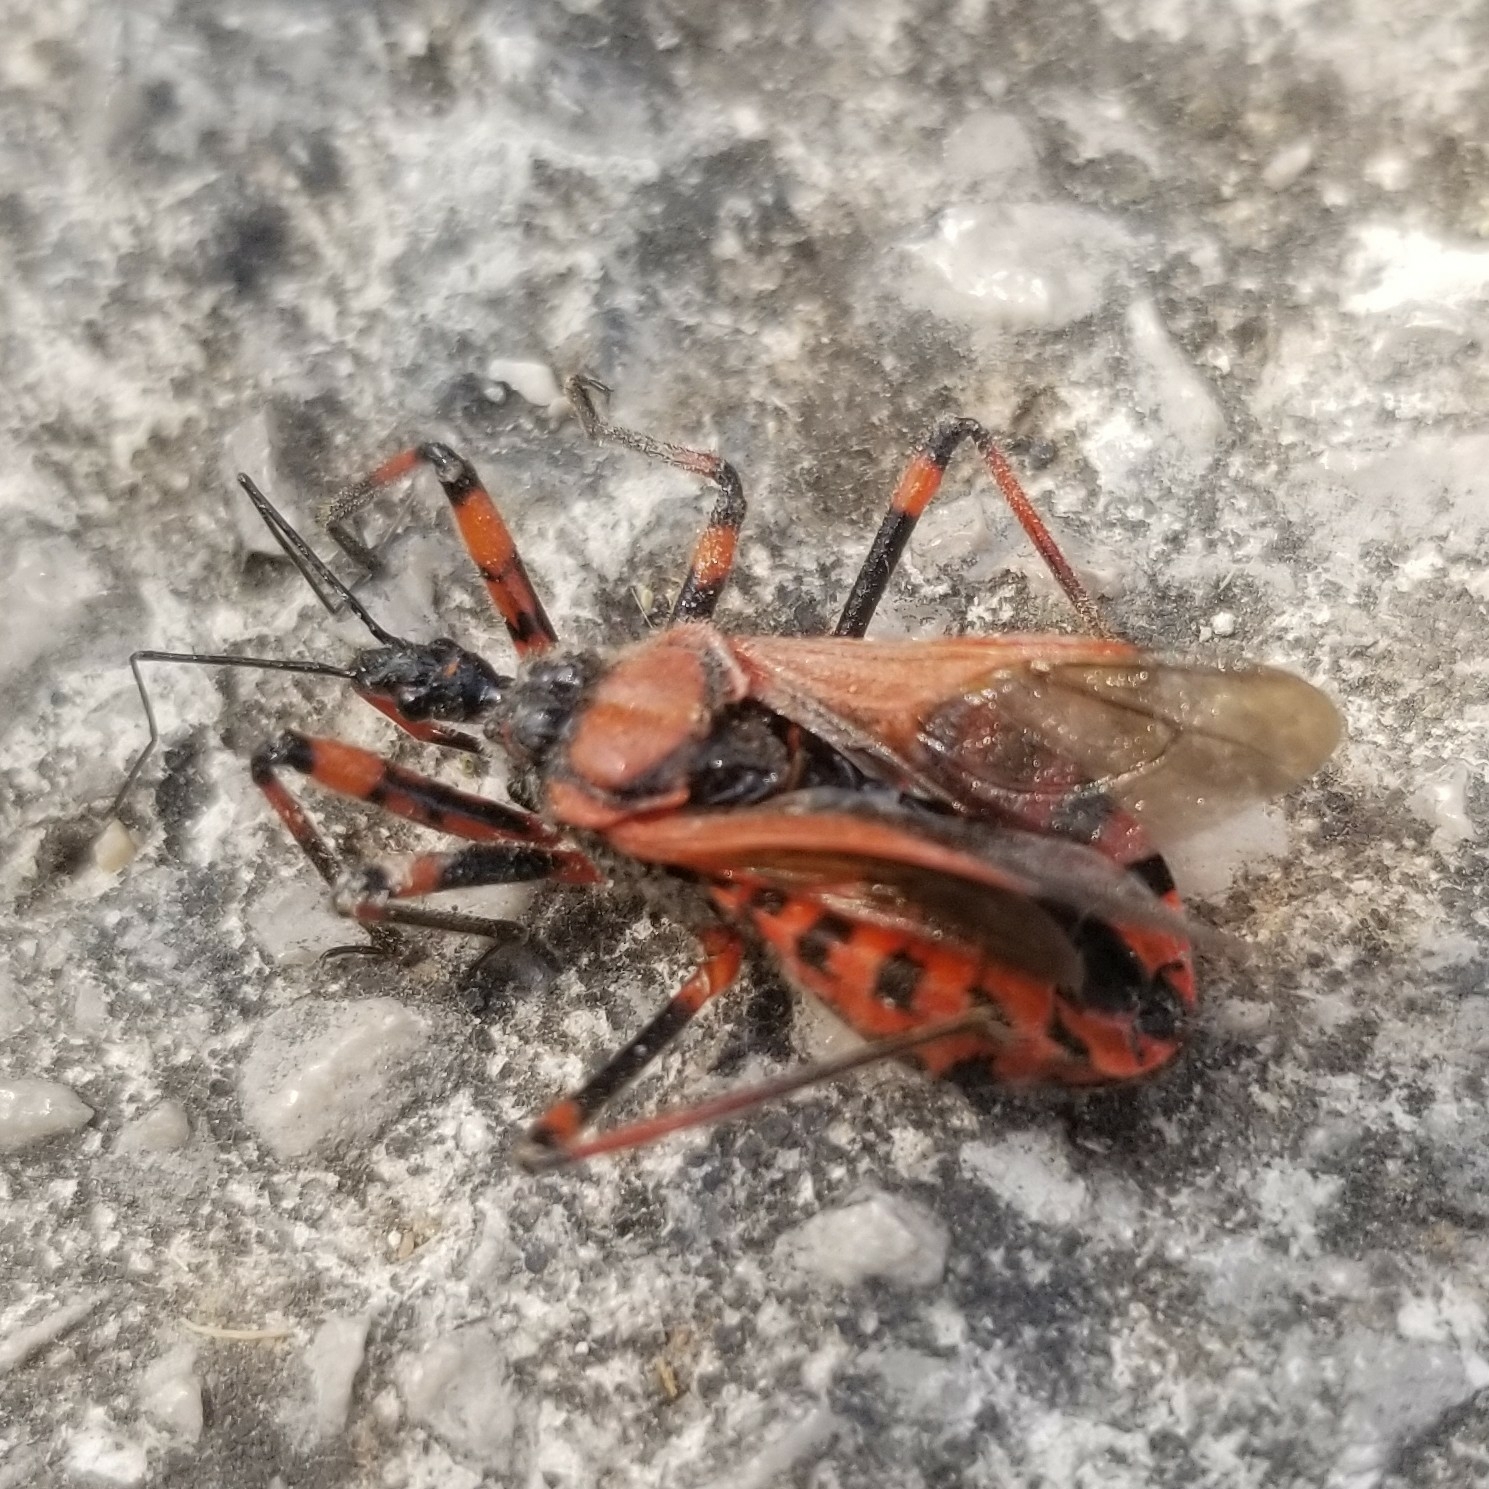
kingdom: Animalia
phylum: Arthropoda
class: Insecta
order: Hemiptera
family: Reduviidae
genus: Rhynocoris
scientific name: Rhynocoris iracundus
